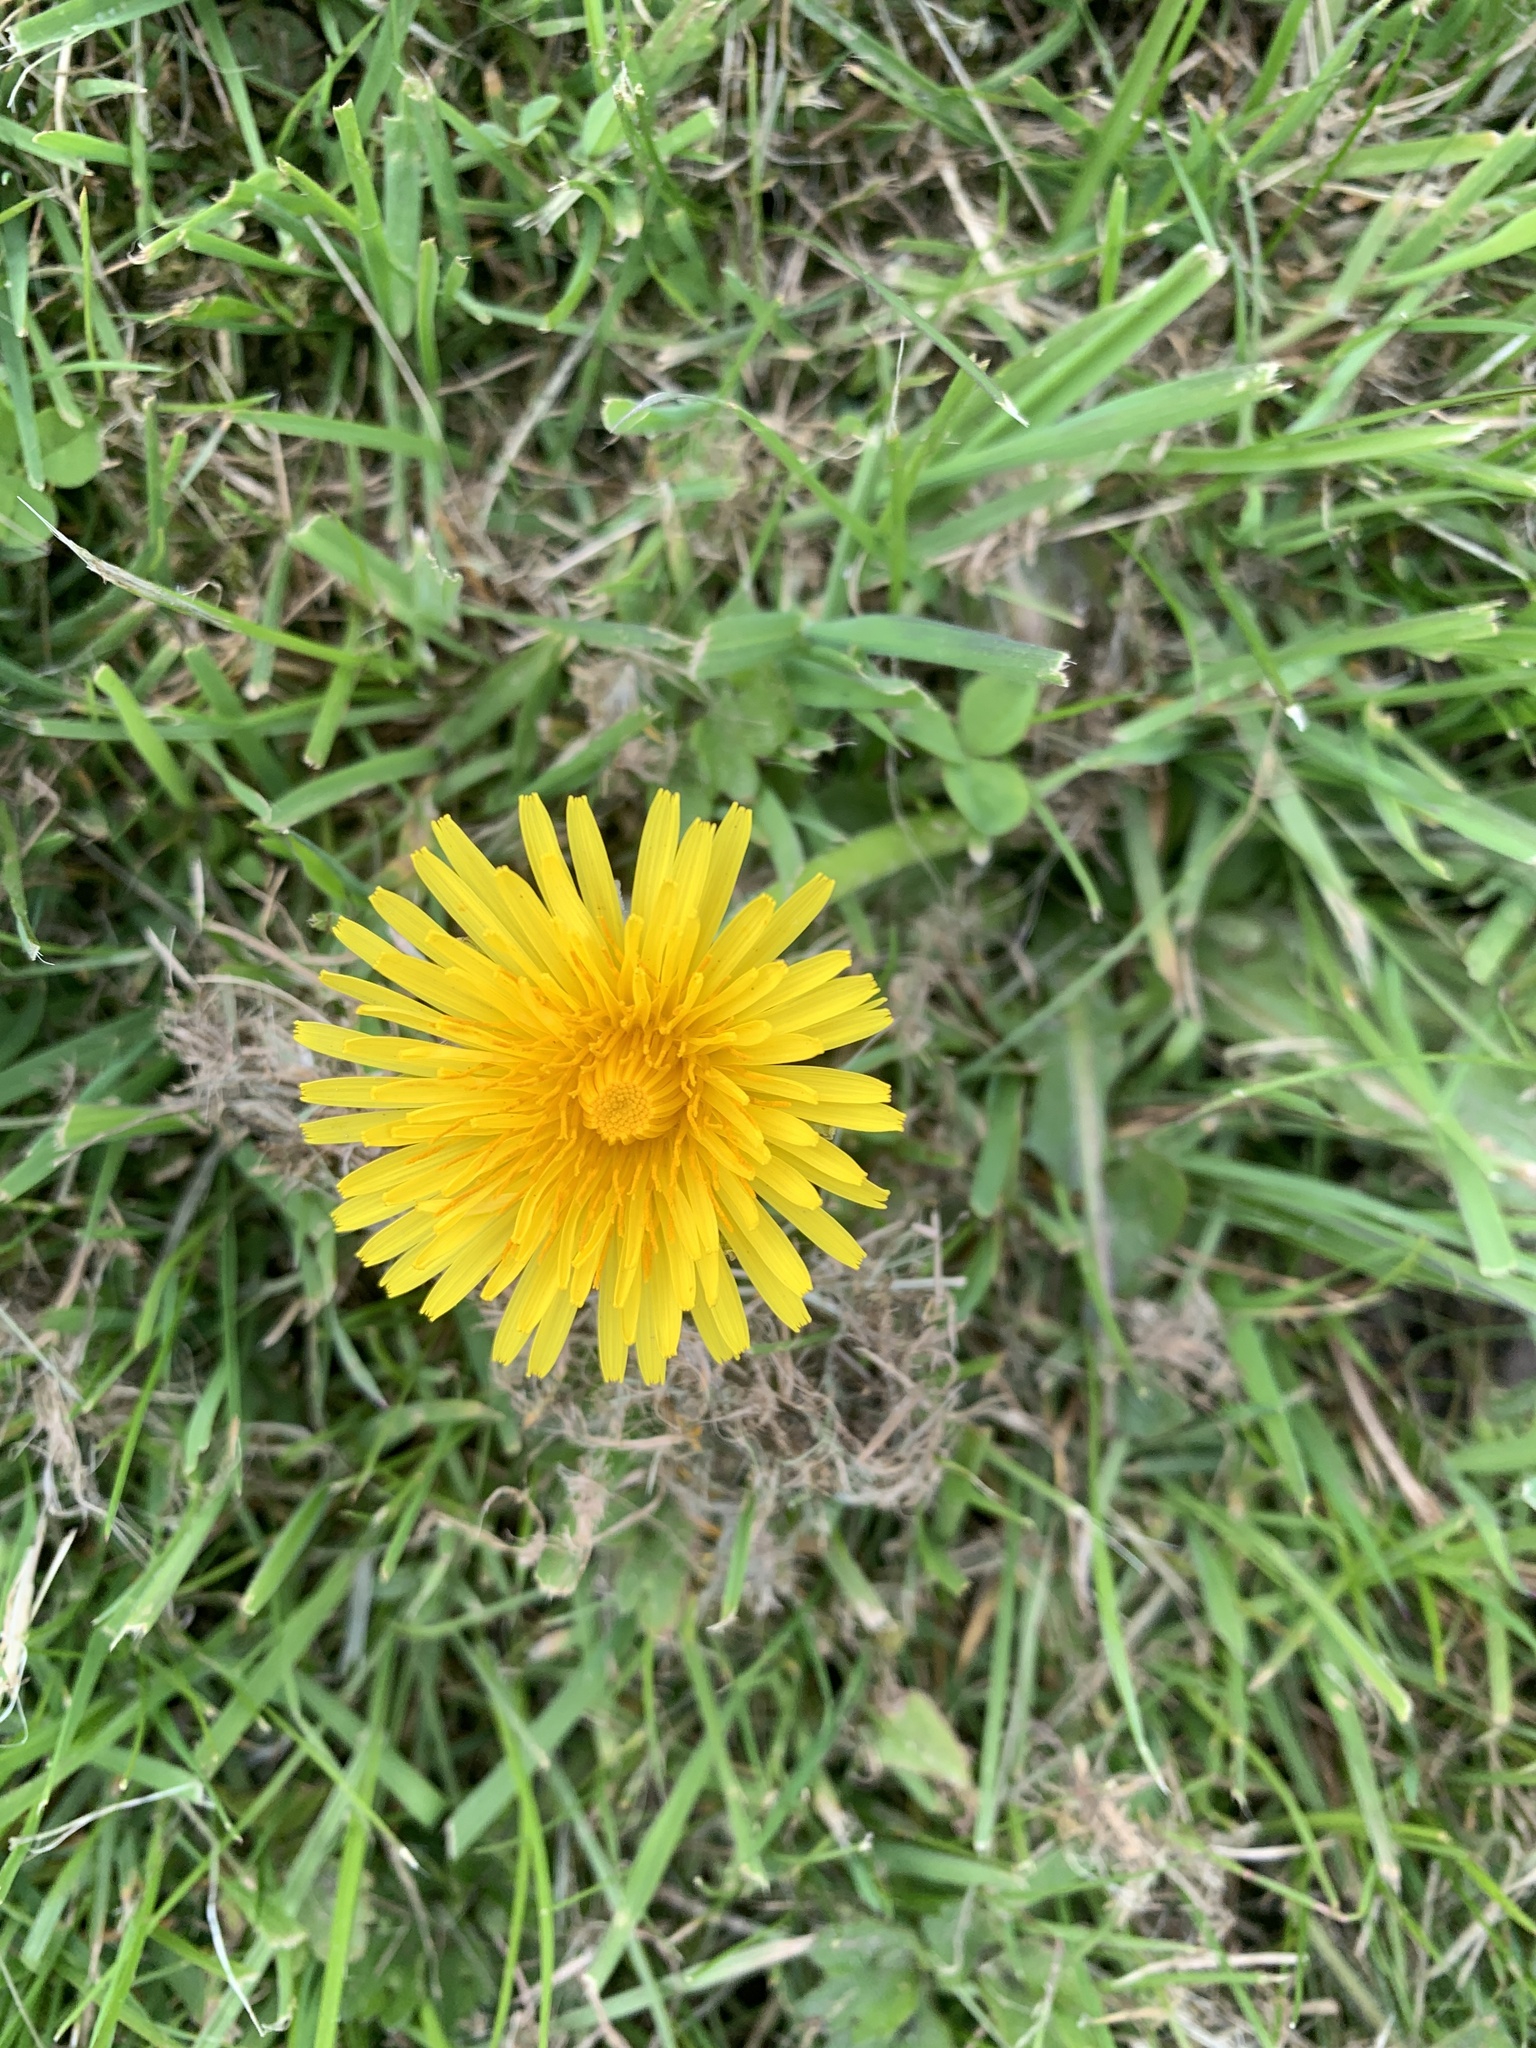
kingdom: Plantae
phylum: Tracheophyta
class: Magnoliopsida
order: Asterales
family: Asteraceae
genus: Taraxacum
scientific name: Taraxacum officinale
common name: Common dandelion
